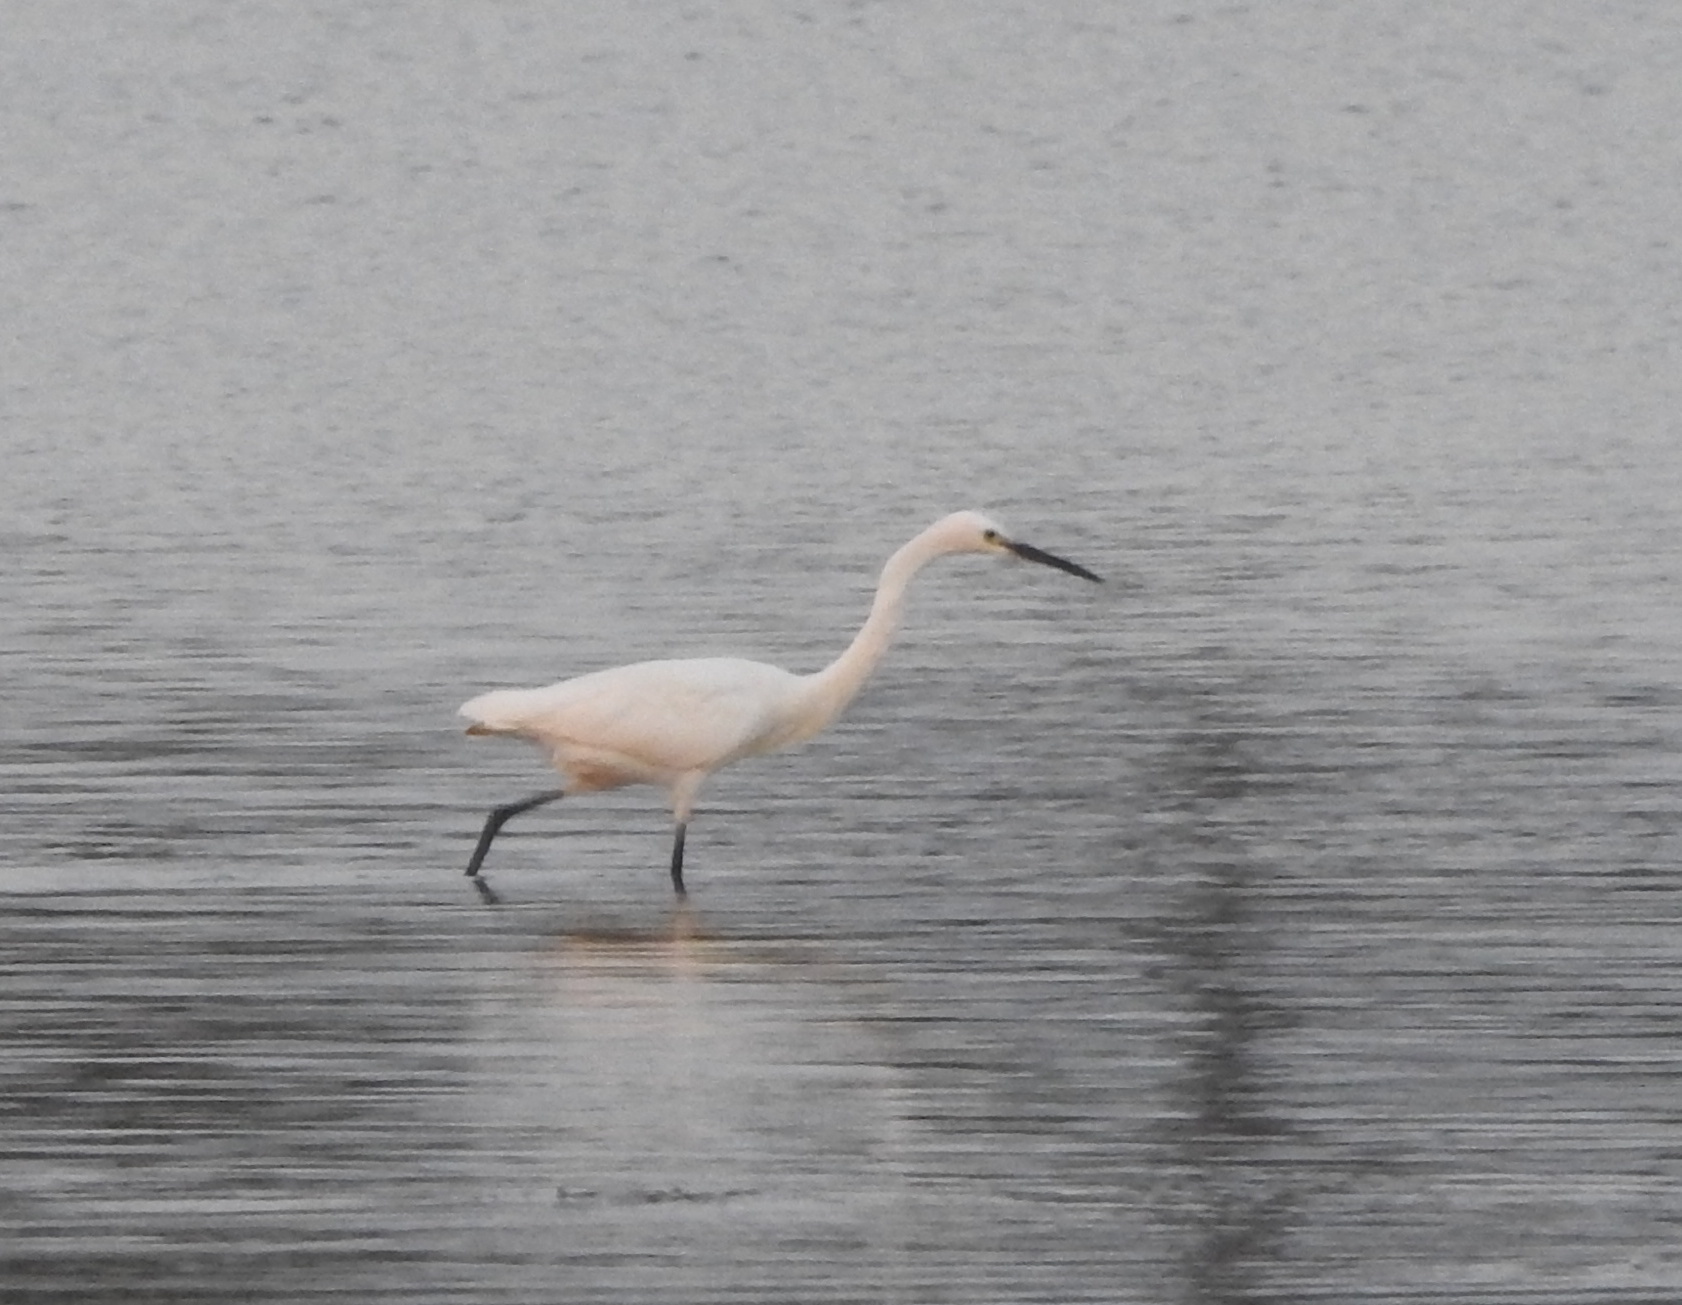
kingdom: Animalia
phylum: Chordata
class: Aves
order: Pelecaniformes
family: Ardeidae
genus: Egretta
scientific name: Egretta garzetta
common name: Little egret
